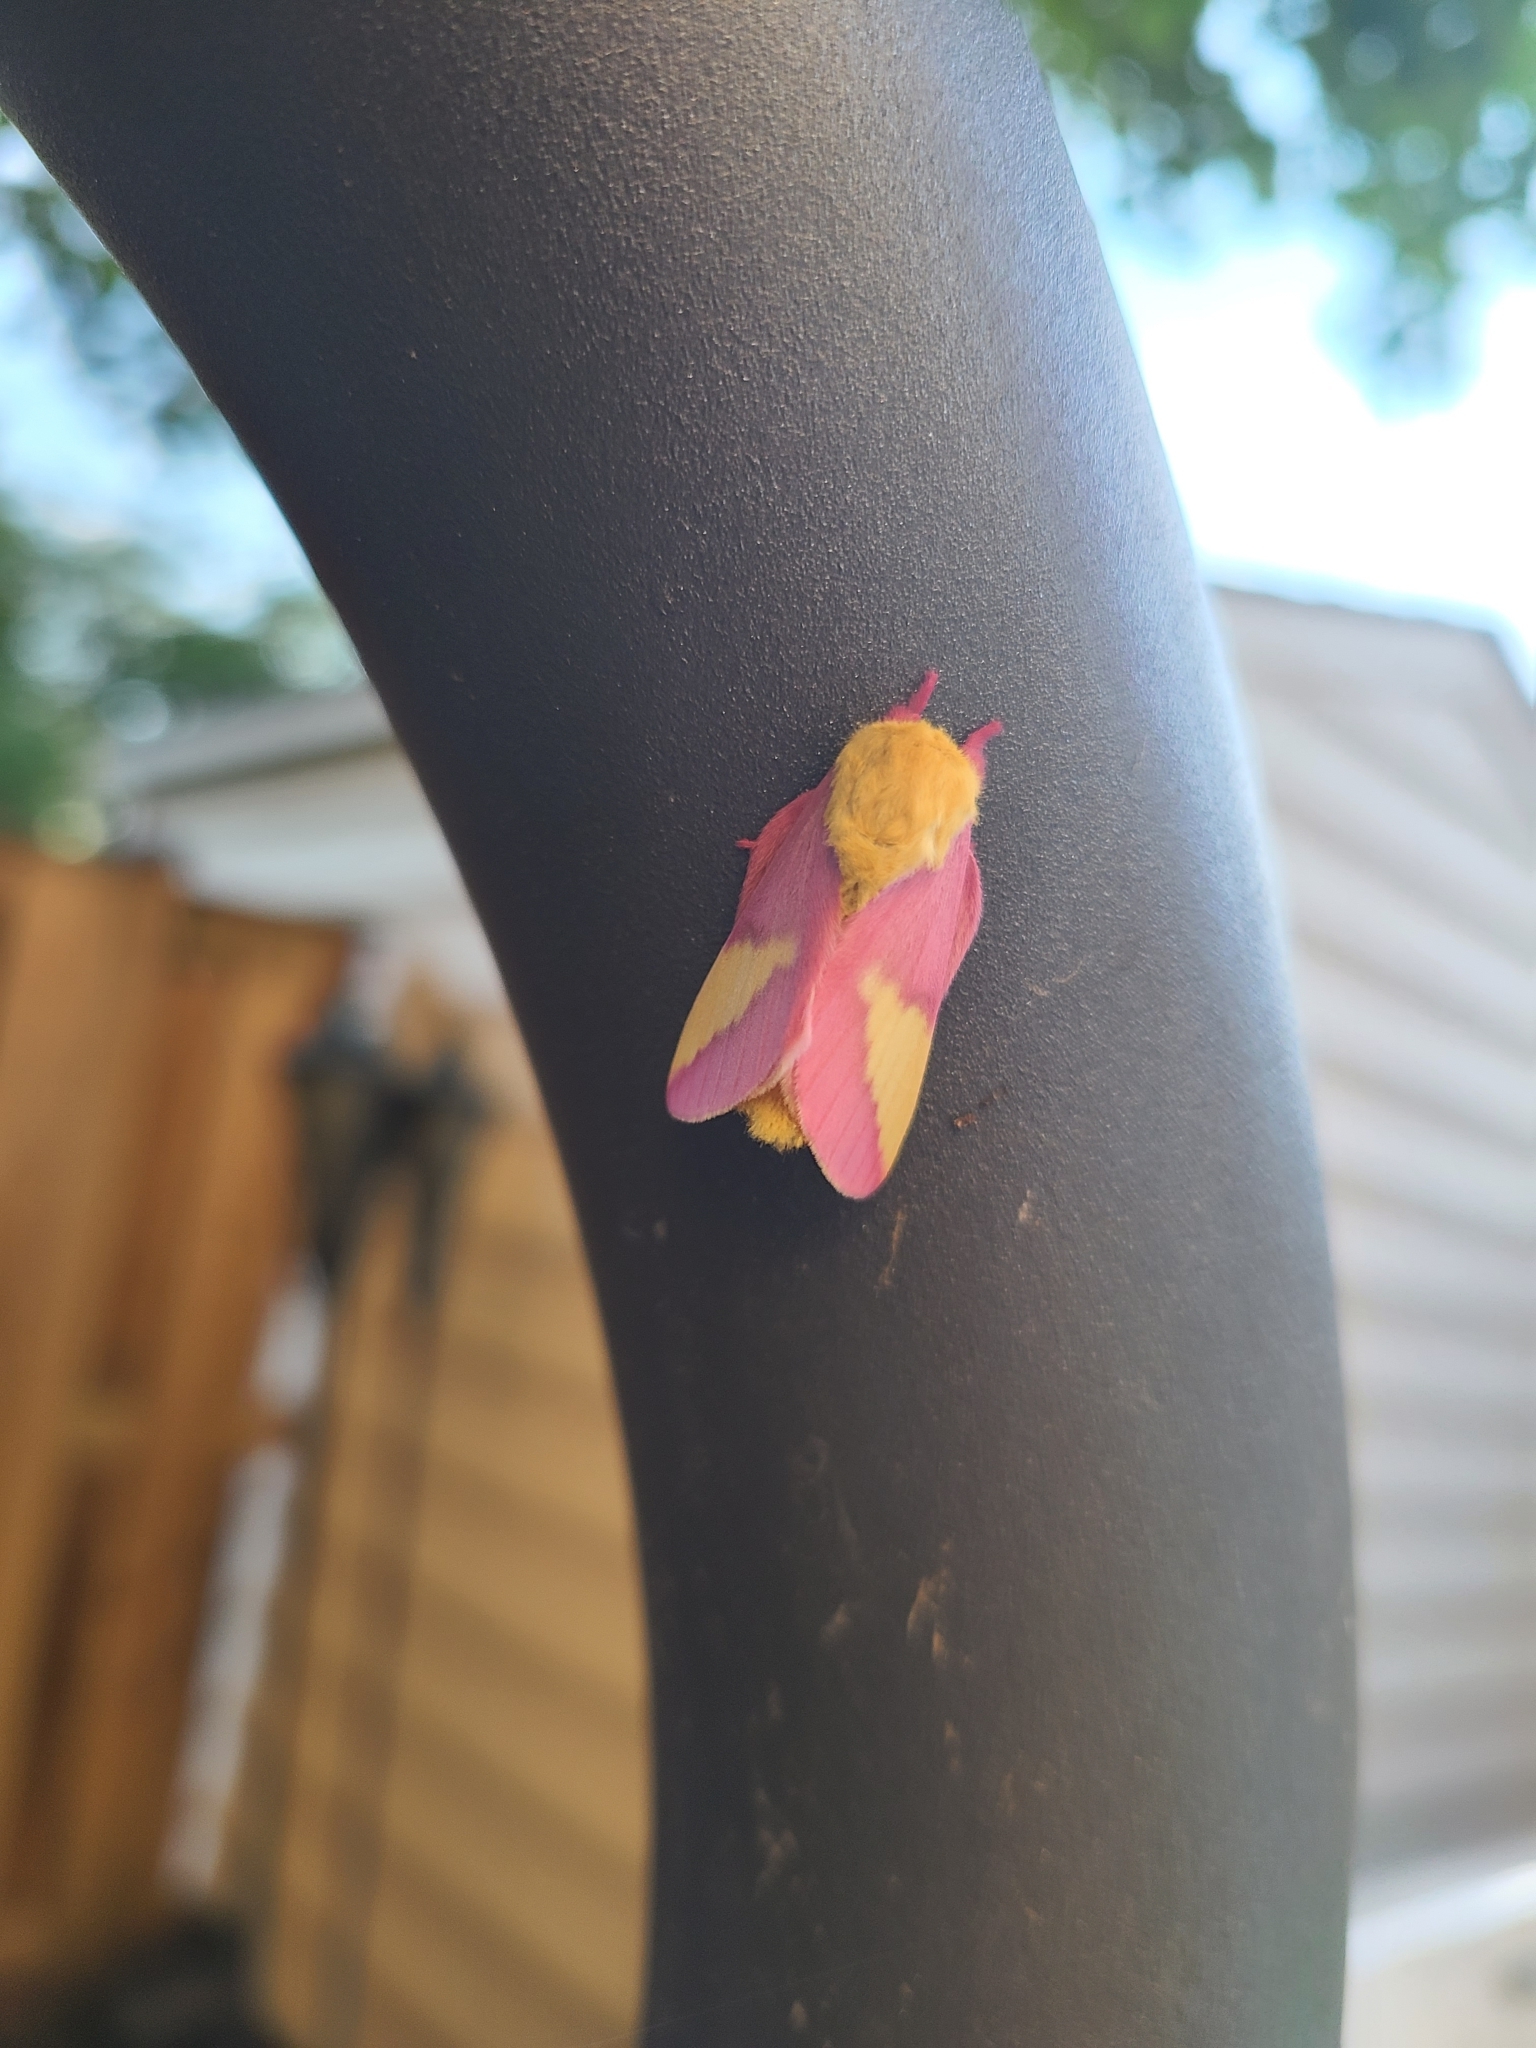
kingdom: Animalia
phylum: Arthropoda
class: Insecta
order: Lepidoptera
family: Saturniidae
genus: Dryocampa
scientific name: Dryocampa rubicunda
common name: Rosy maple moth
